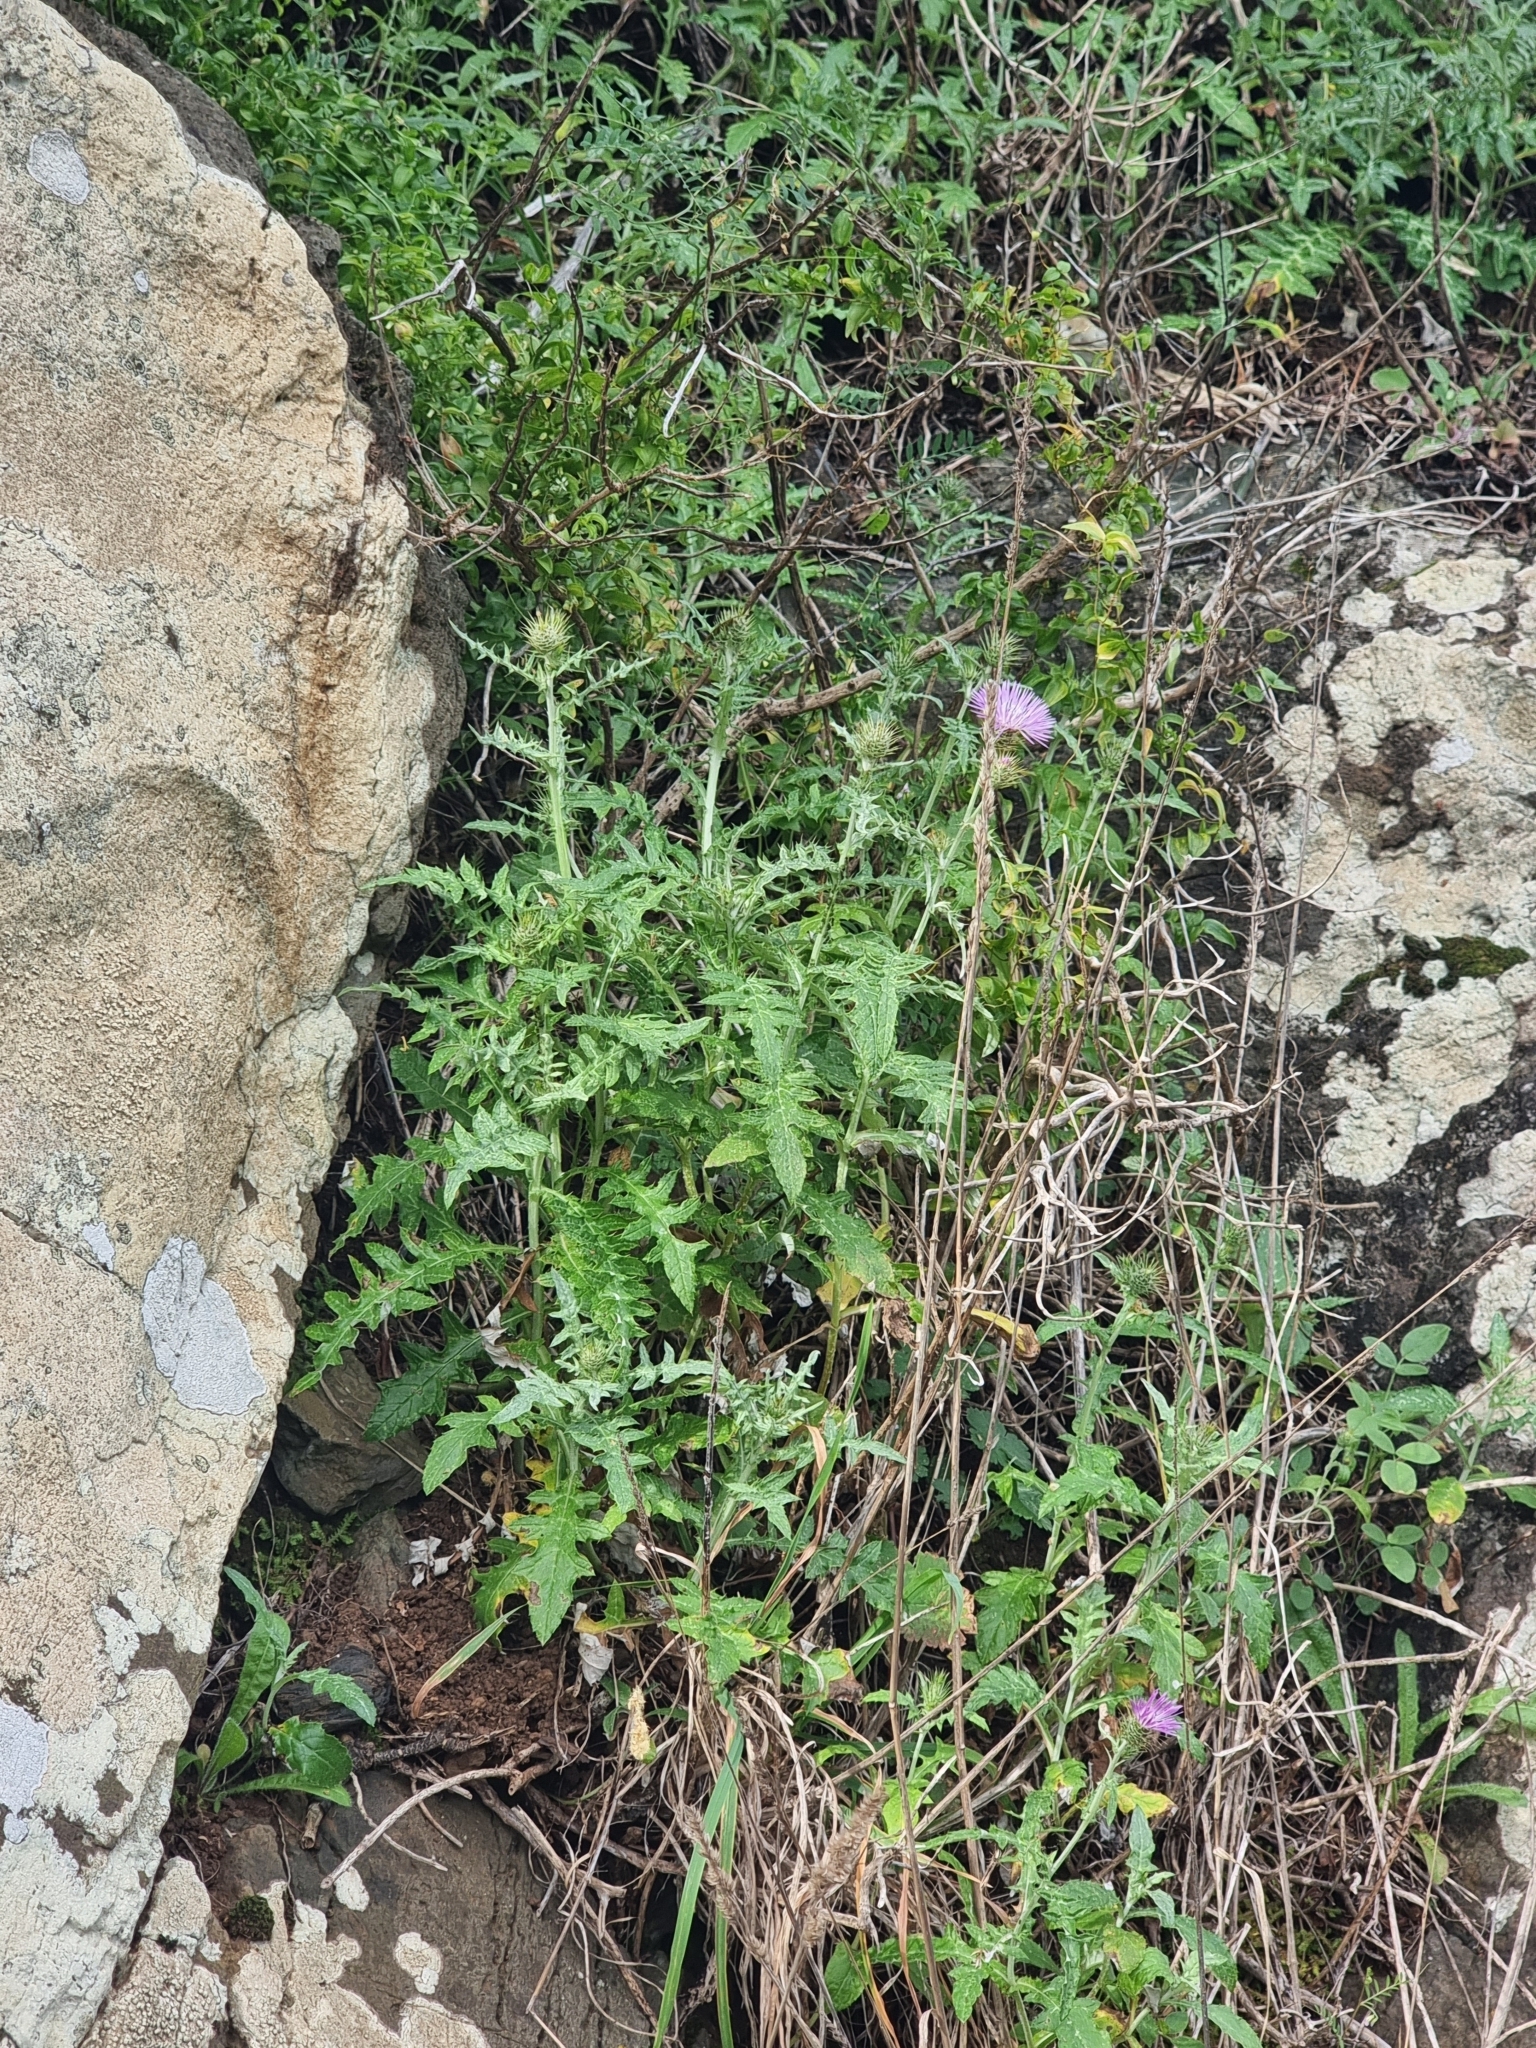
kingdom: Plantae
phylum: Tracheophyta
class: Magnoliopsida
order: Asterales
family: Asteraceae
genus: Galactites
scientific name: Galactites tomentosa
